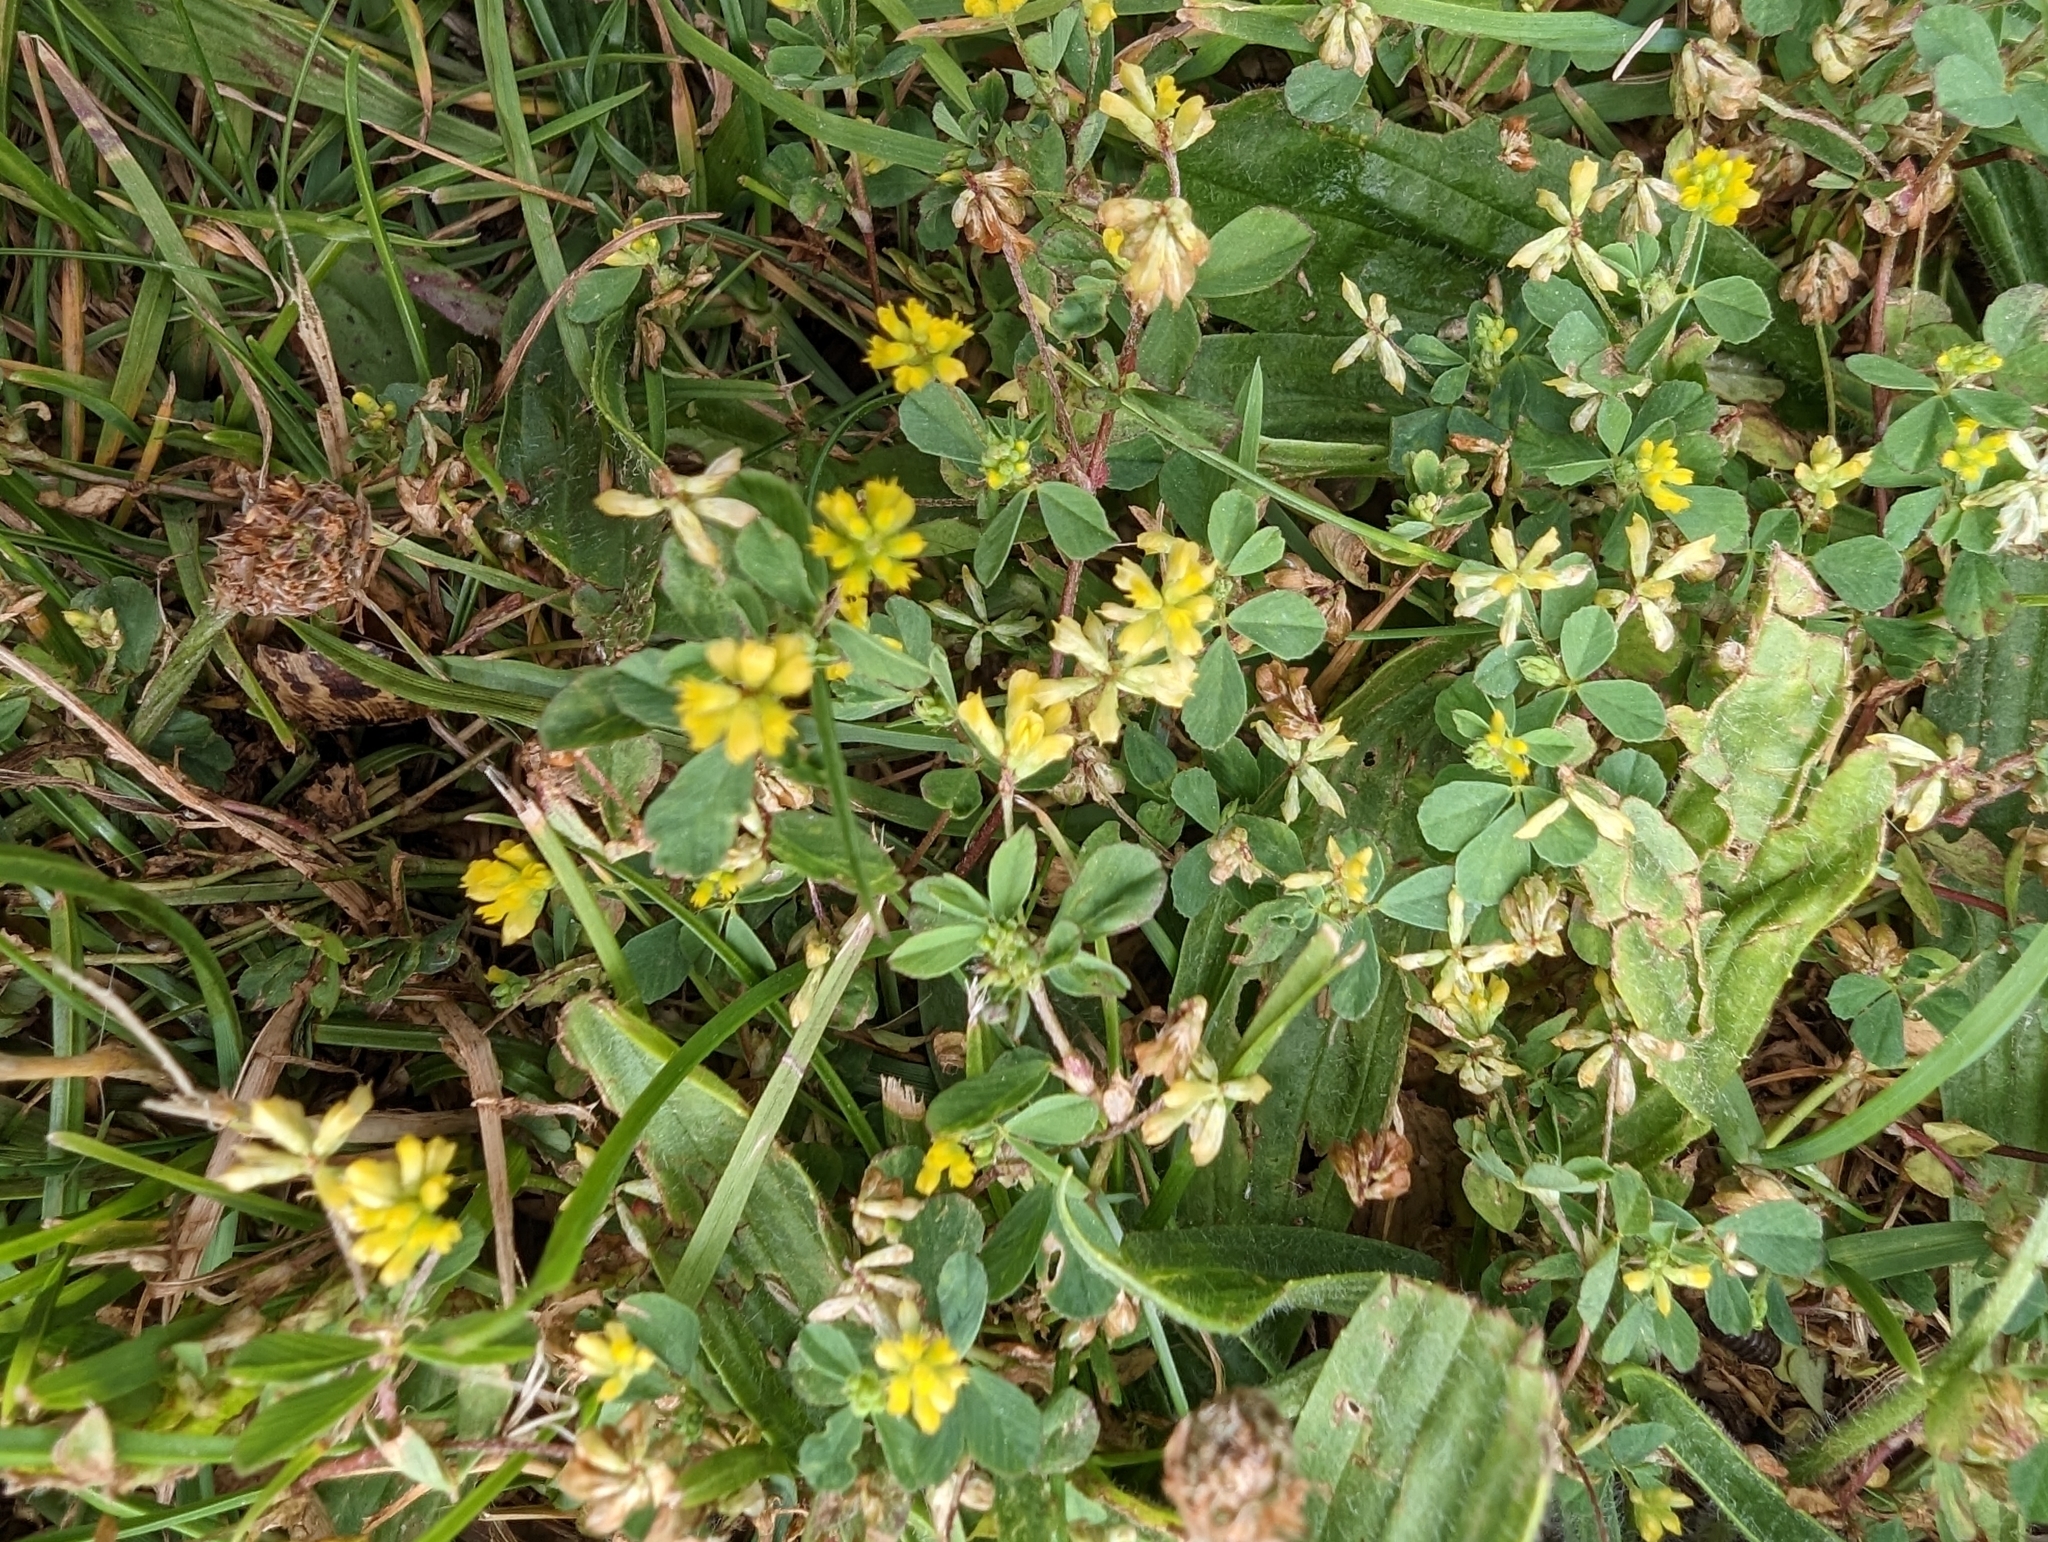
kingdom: Plantae
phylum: Tracheophyta
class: Magnoliopsida
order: Fabales
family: Fabaceae
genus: Trifolium
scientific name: Trifolium dubium
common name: Suckling clover
